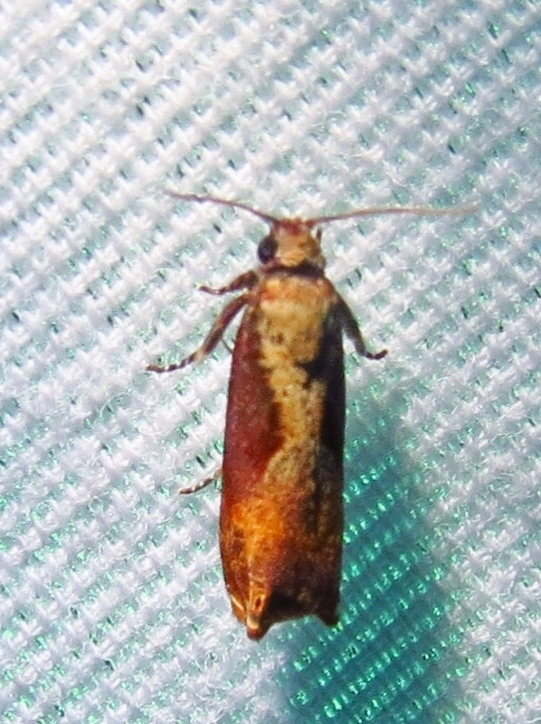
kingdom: Animalia
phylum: Arthropoda
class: Insecta
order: Lepidoptera
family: Tortricidae
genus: Episimus
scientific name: Episimus tyrius
